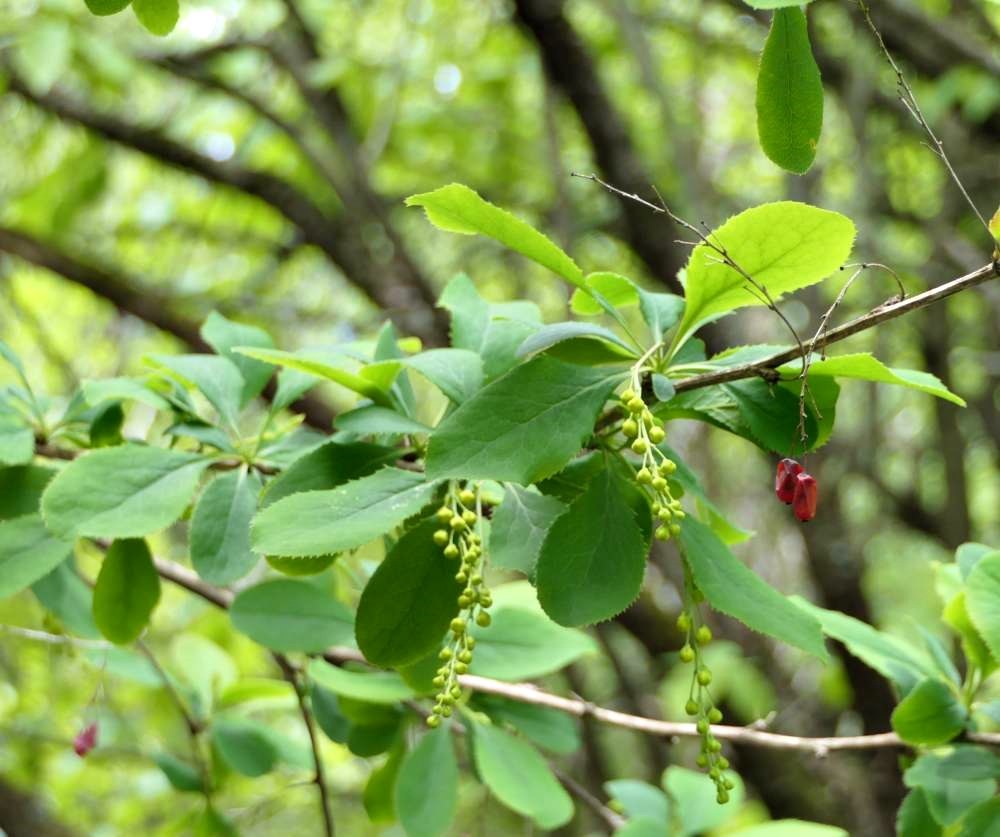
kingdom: Plantae
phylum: Tracheophyta
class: Magnoliopsida
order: Ranunculales
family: Berberidaceae
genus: Berberis
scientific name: Berberis vulgaris
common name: Barberry
